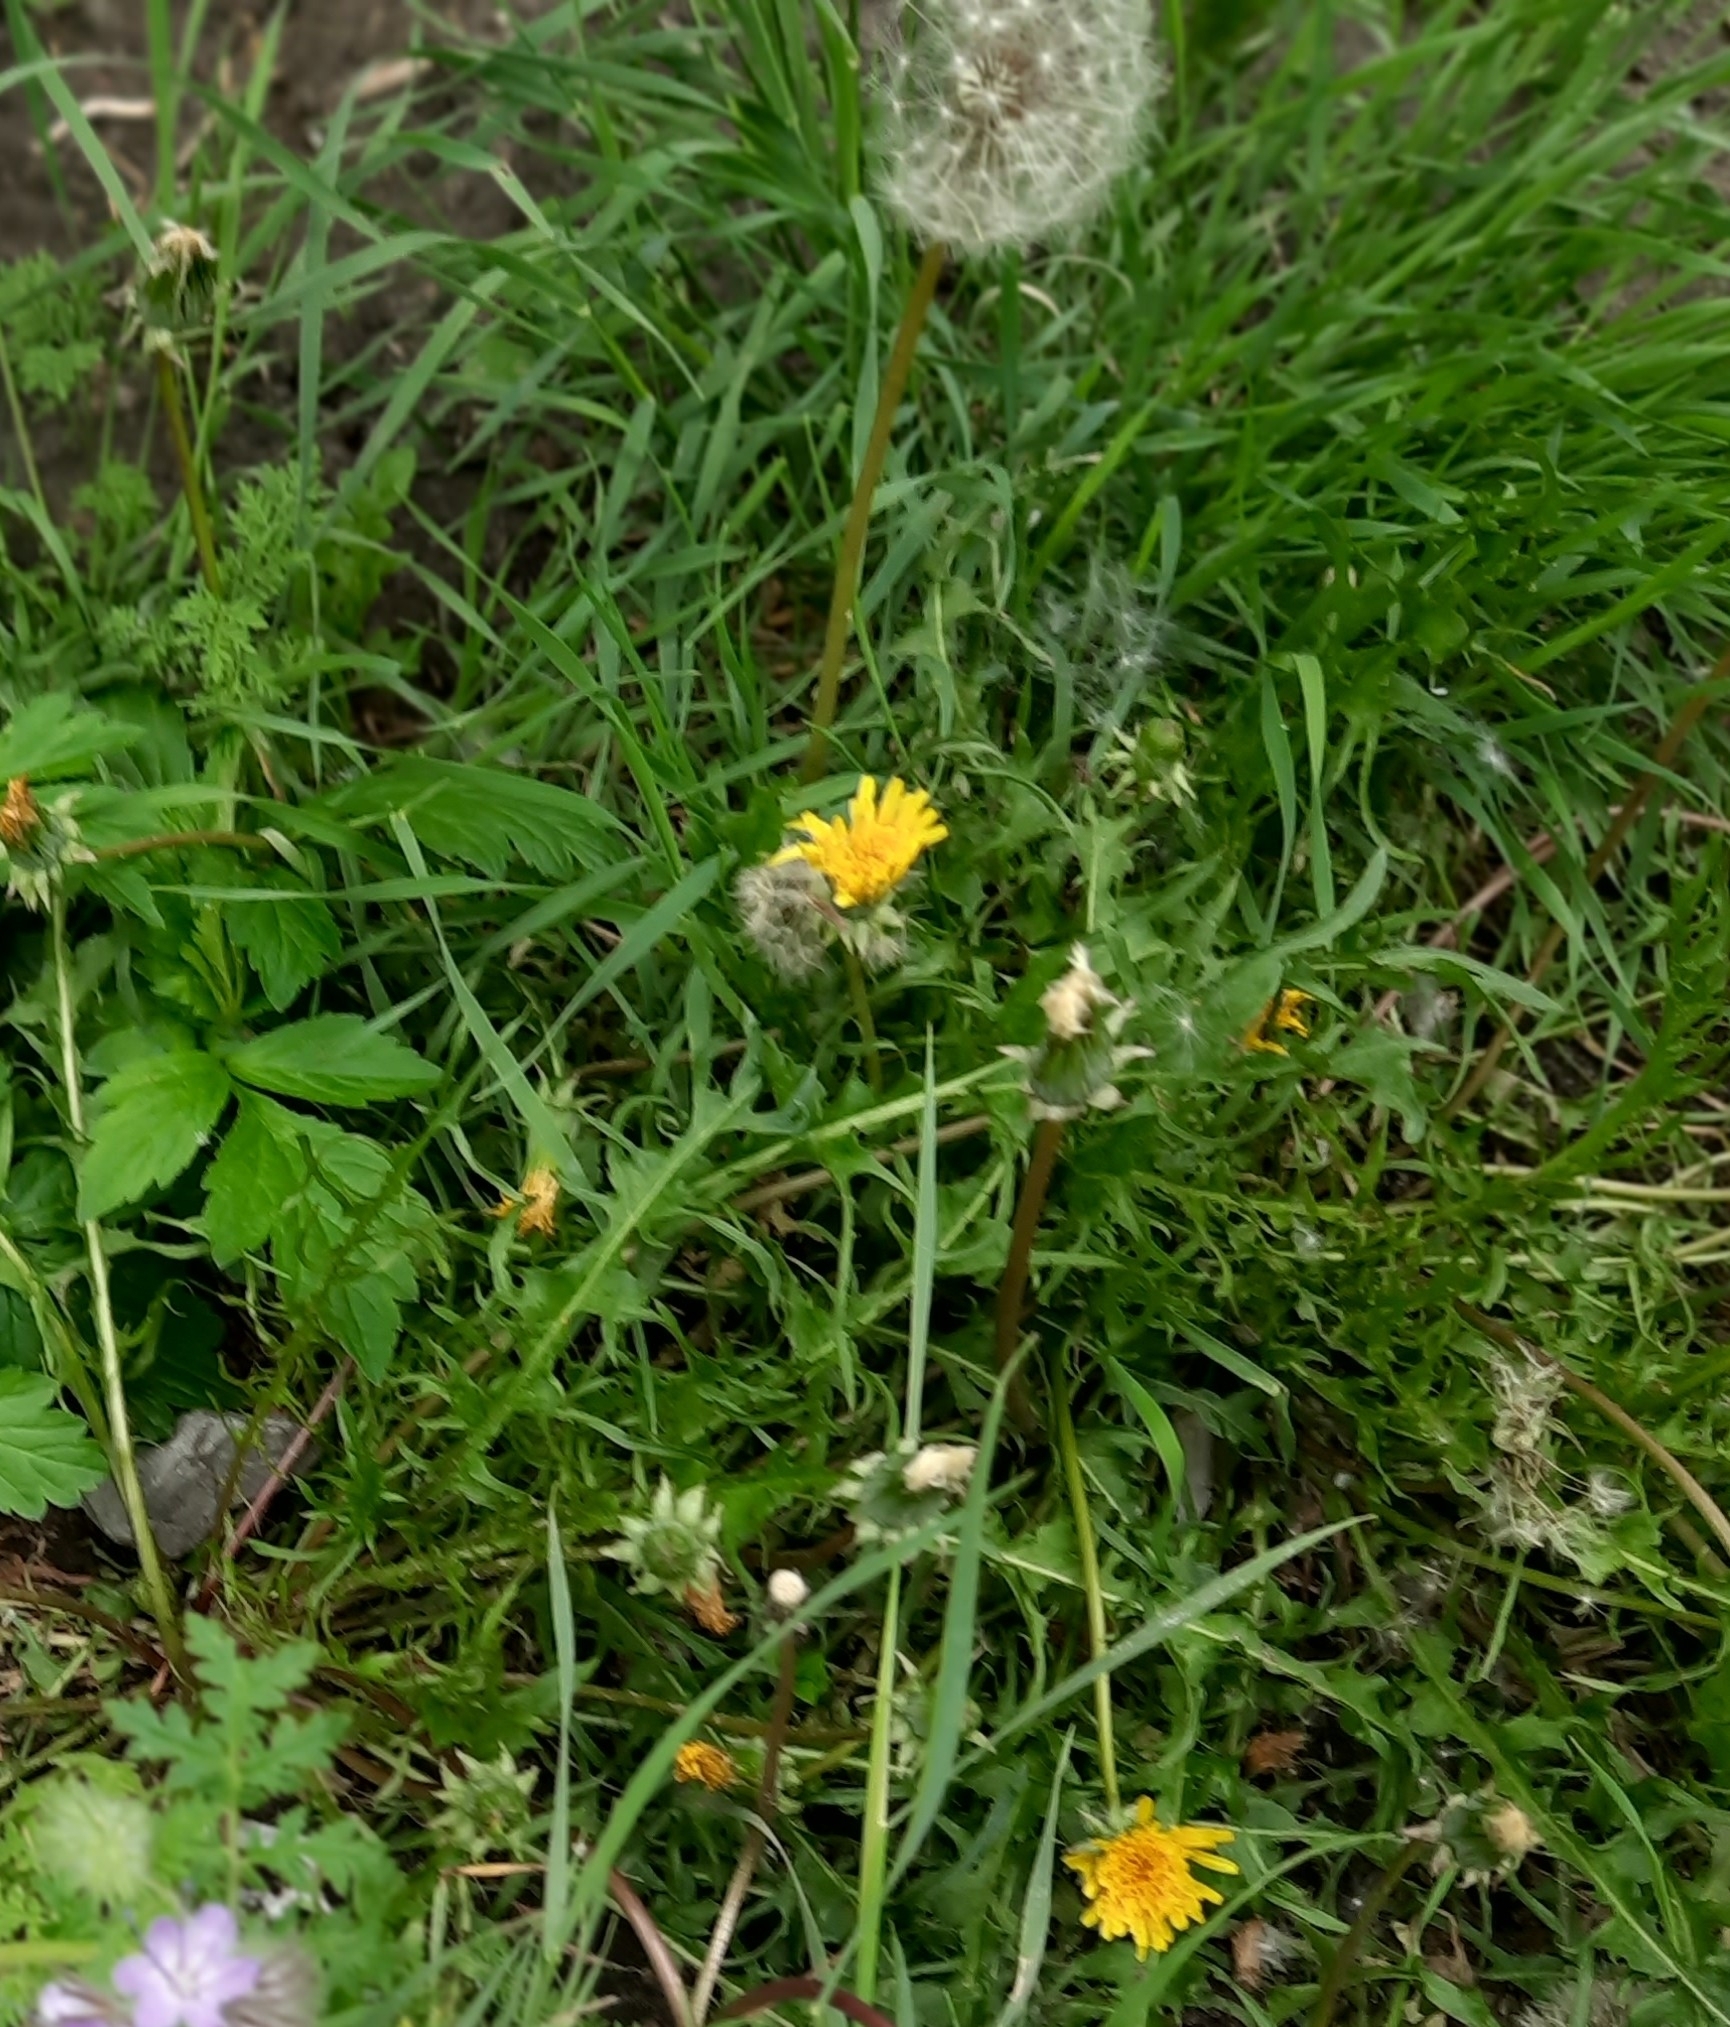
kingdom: Plantae
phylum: Tracheophyta
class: Magnoliopsida
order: Asterales
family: Asteraceae
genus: Taraxacum
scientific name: Taraxacum officinale
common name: Common dandelion
